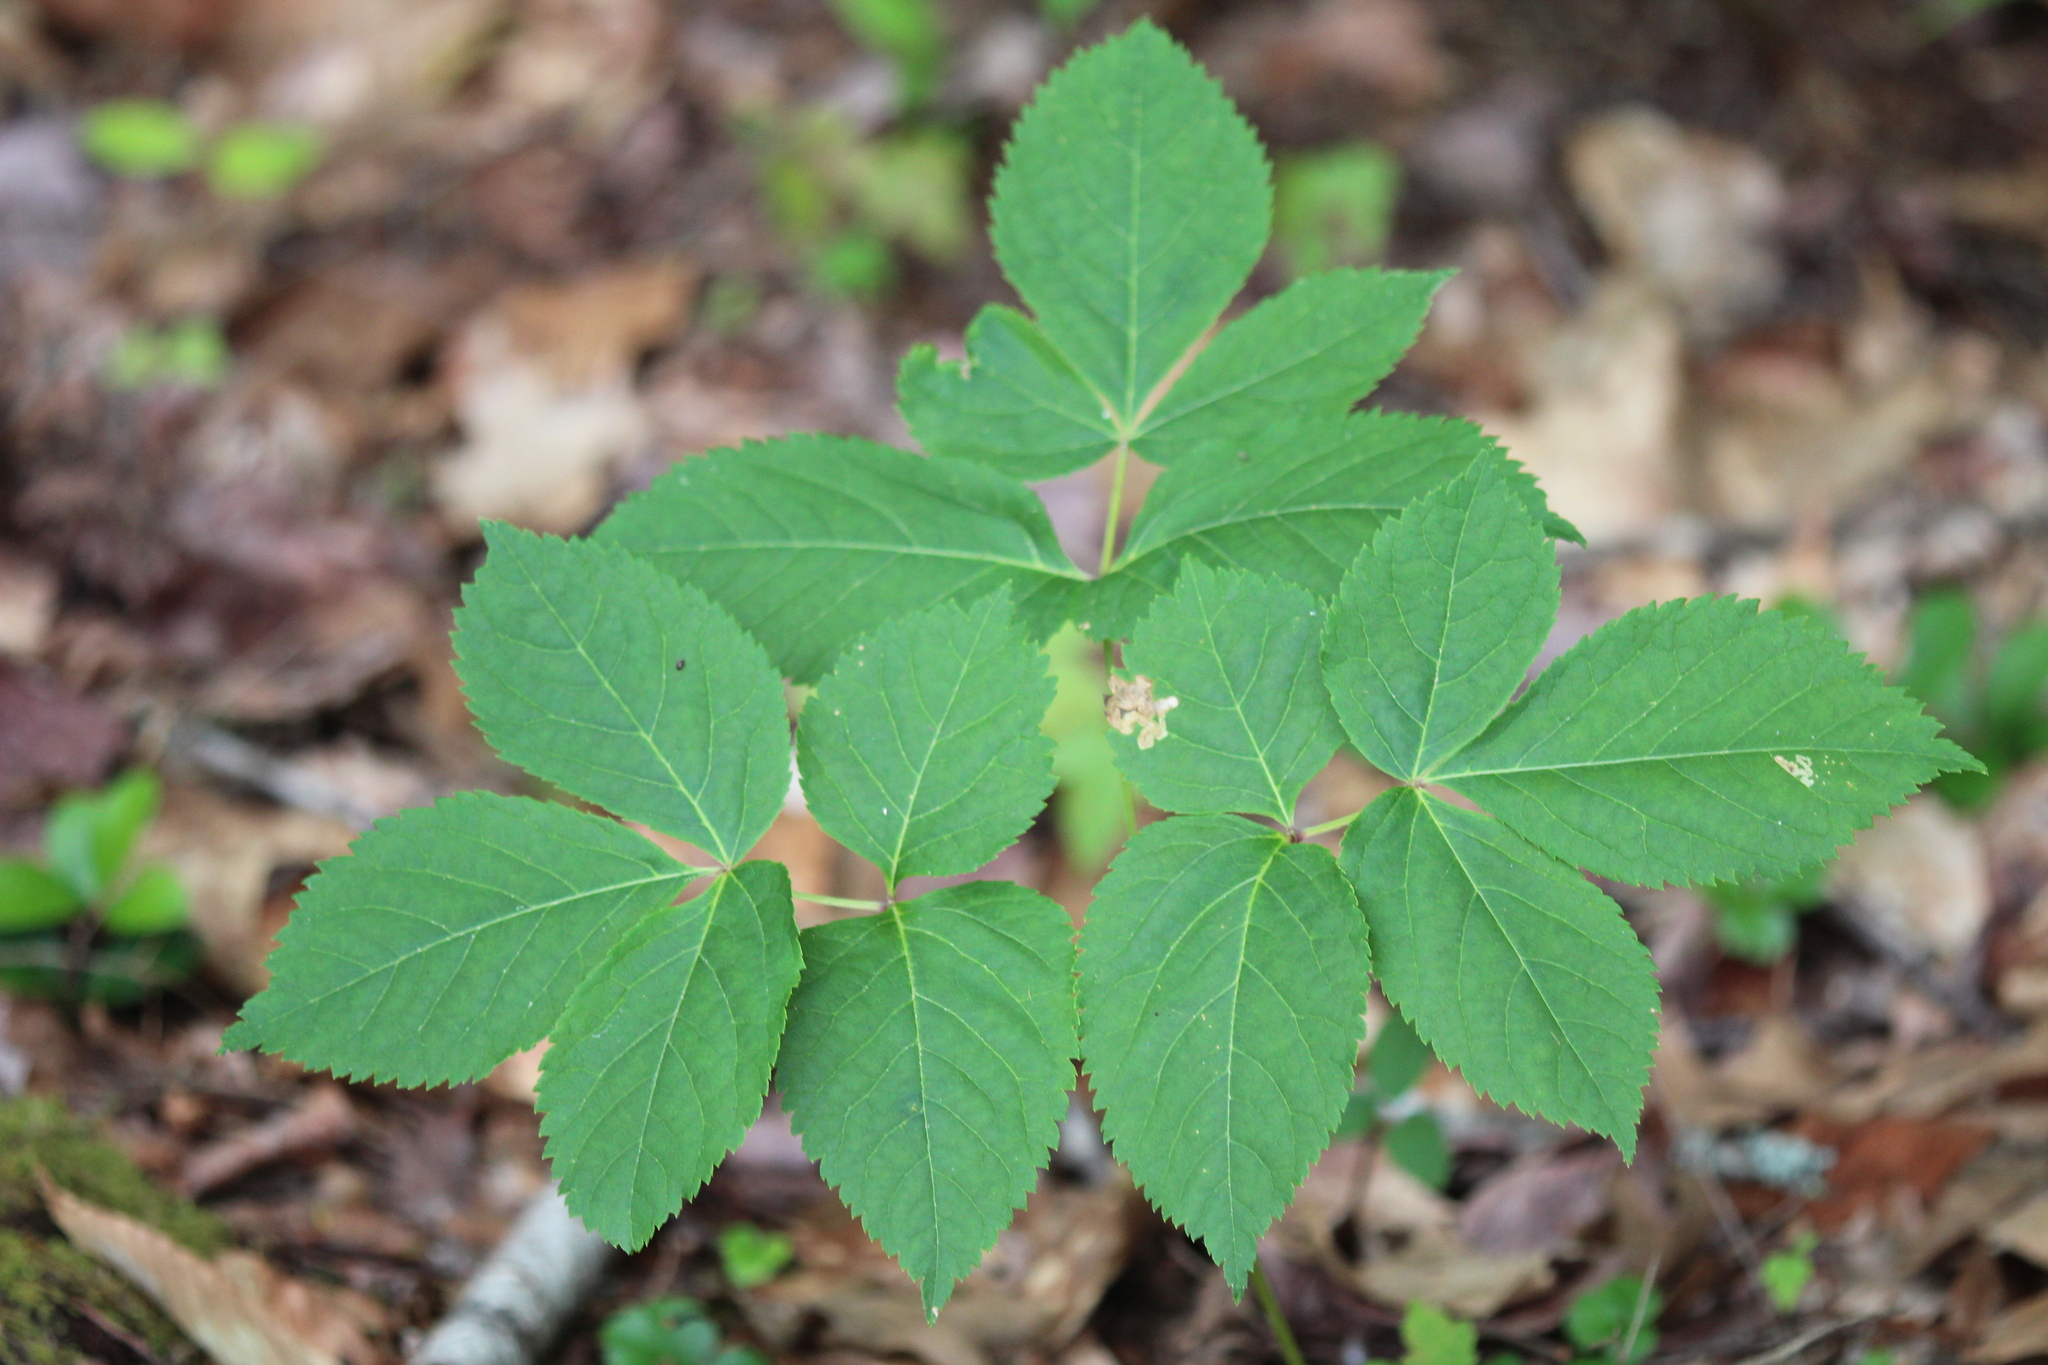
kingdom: Plantae
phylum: Tracheophyta
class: Magnoliopsida
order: Apiales
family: Araliaceae
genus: Aralia
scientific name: Aralia nudicaulis
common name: Wild sarsaparilla
